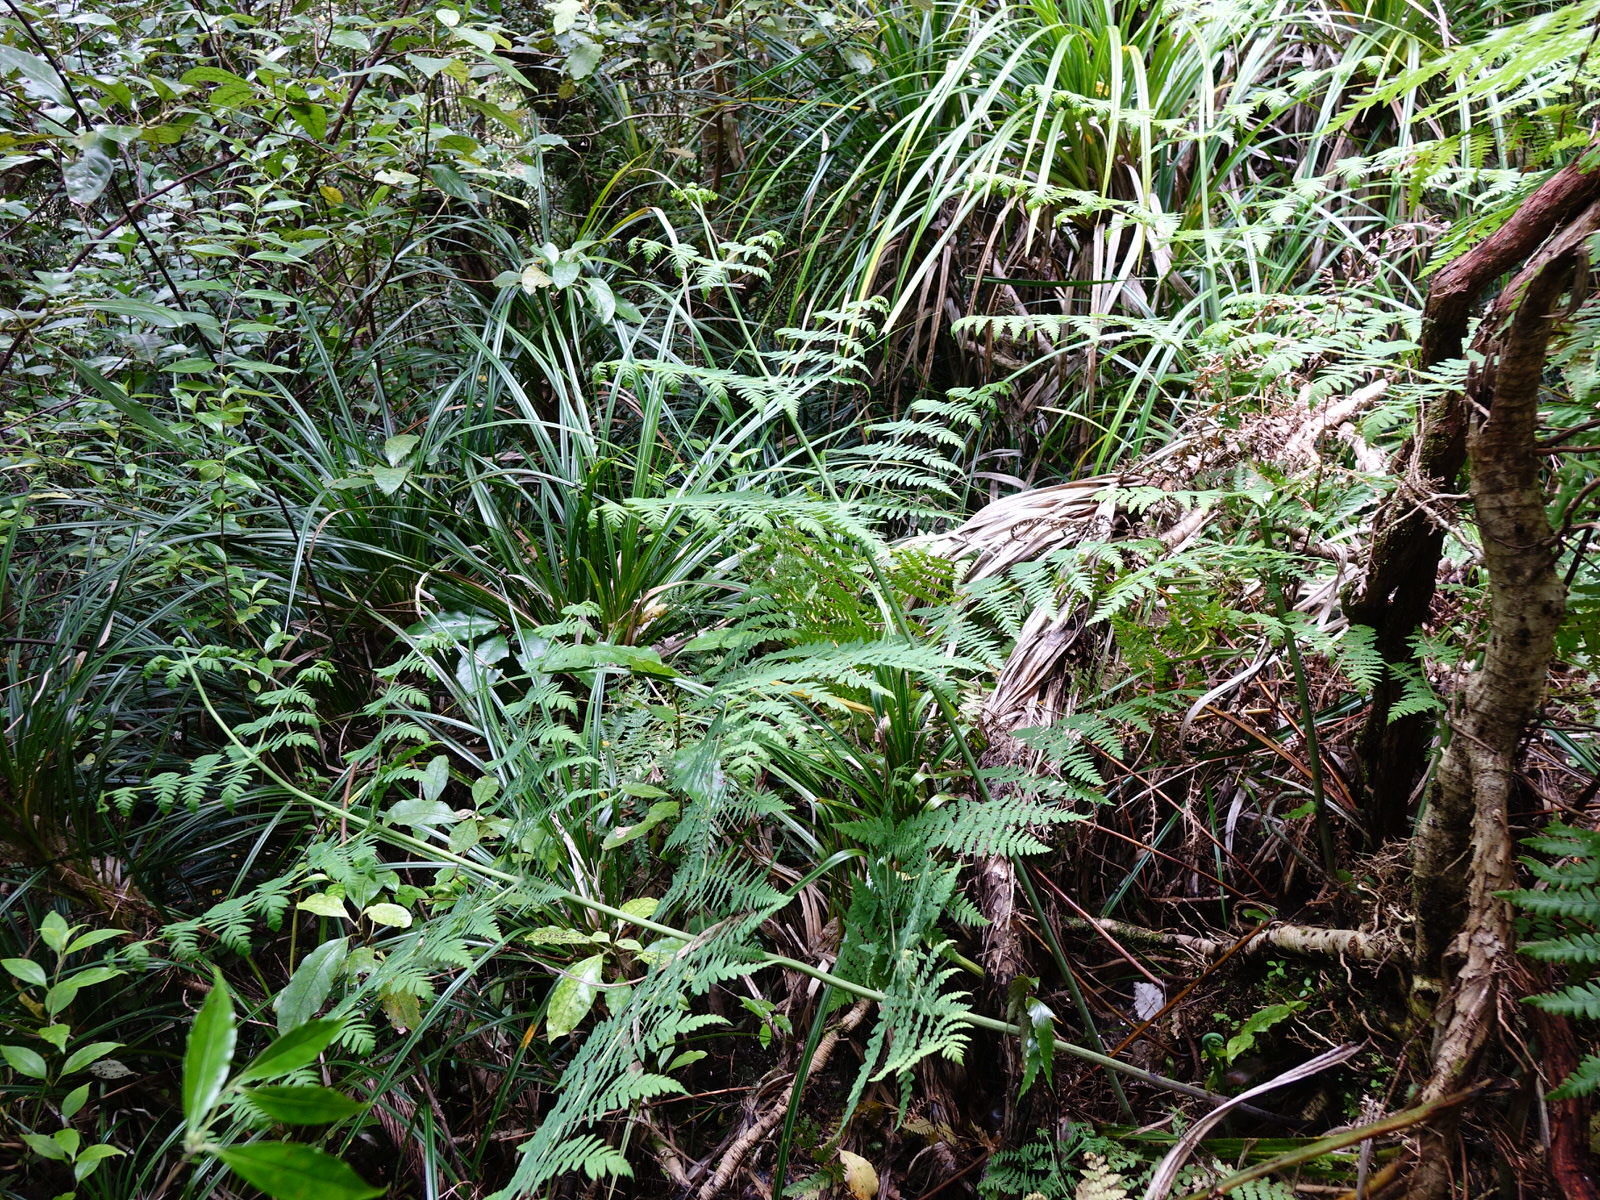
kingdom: Plantae
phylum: Tracheophyta
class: Polypodiopsida
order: Polypodiales
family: Dennstaedtiaceae
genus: Histiopteris
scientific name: Histiopteris incisa
